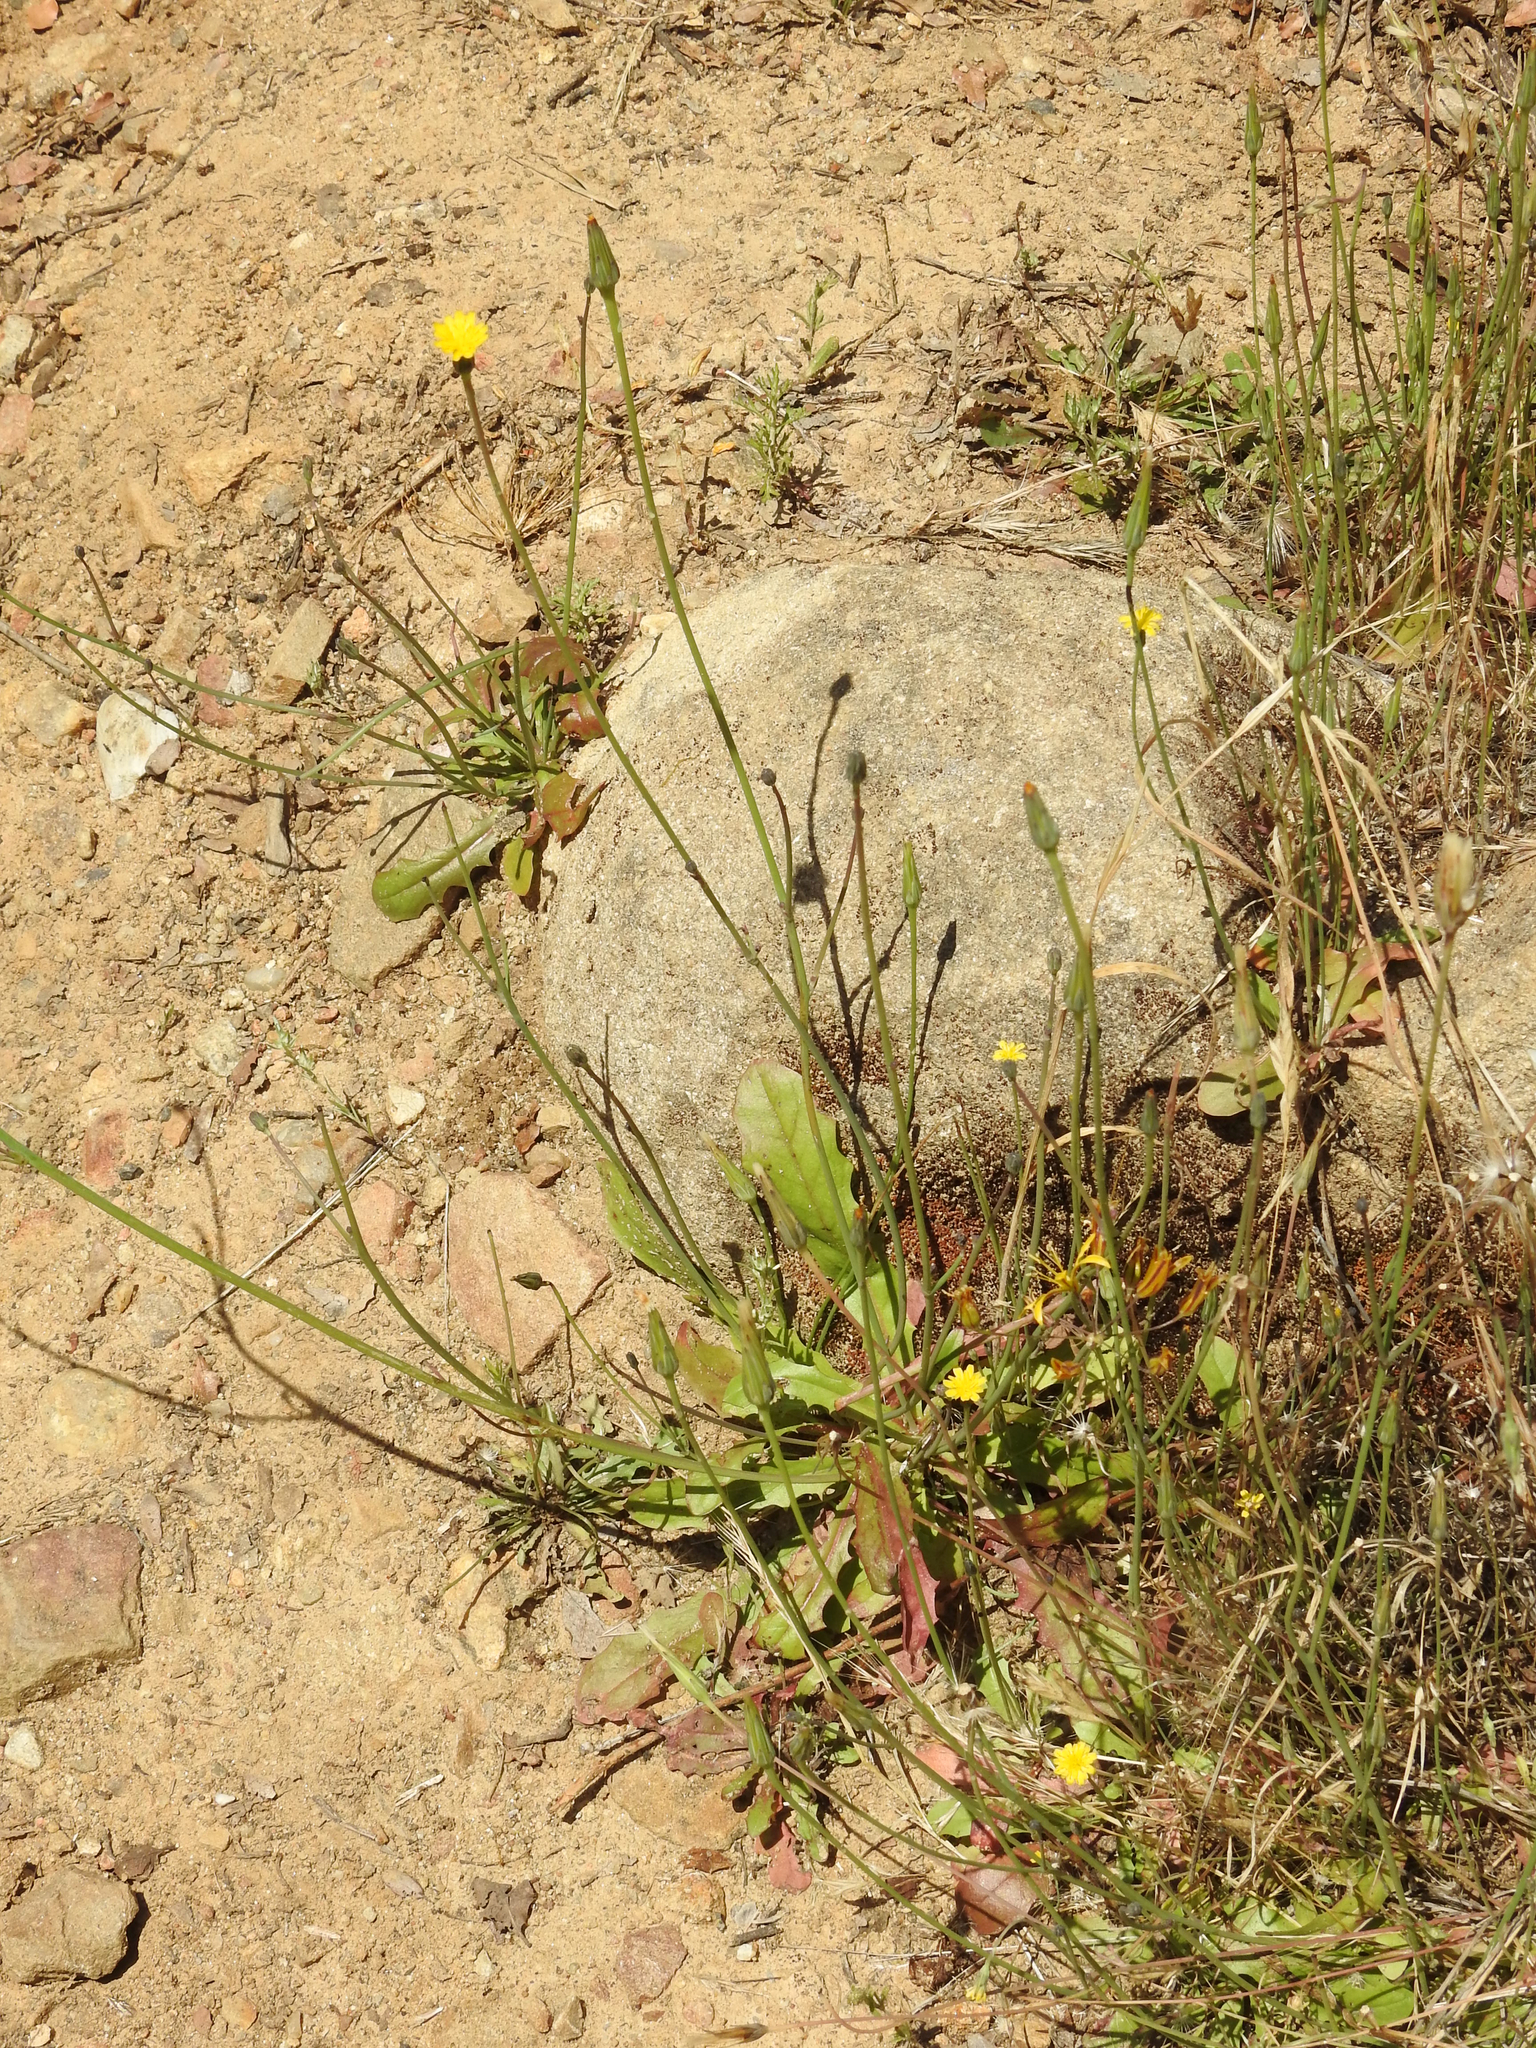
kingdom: Plantae
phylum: Tracheophyta
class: Magnoliopsida
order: Asterales
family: Asteraceae
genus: Hypochaeris
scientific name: Hypochaeris glabra
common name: Smooth catsear
